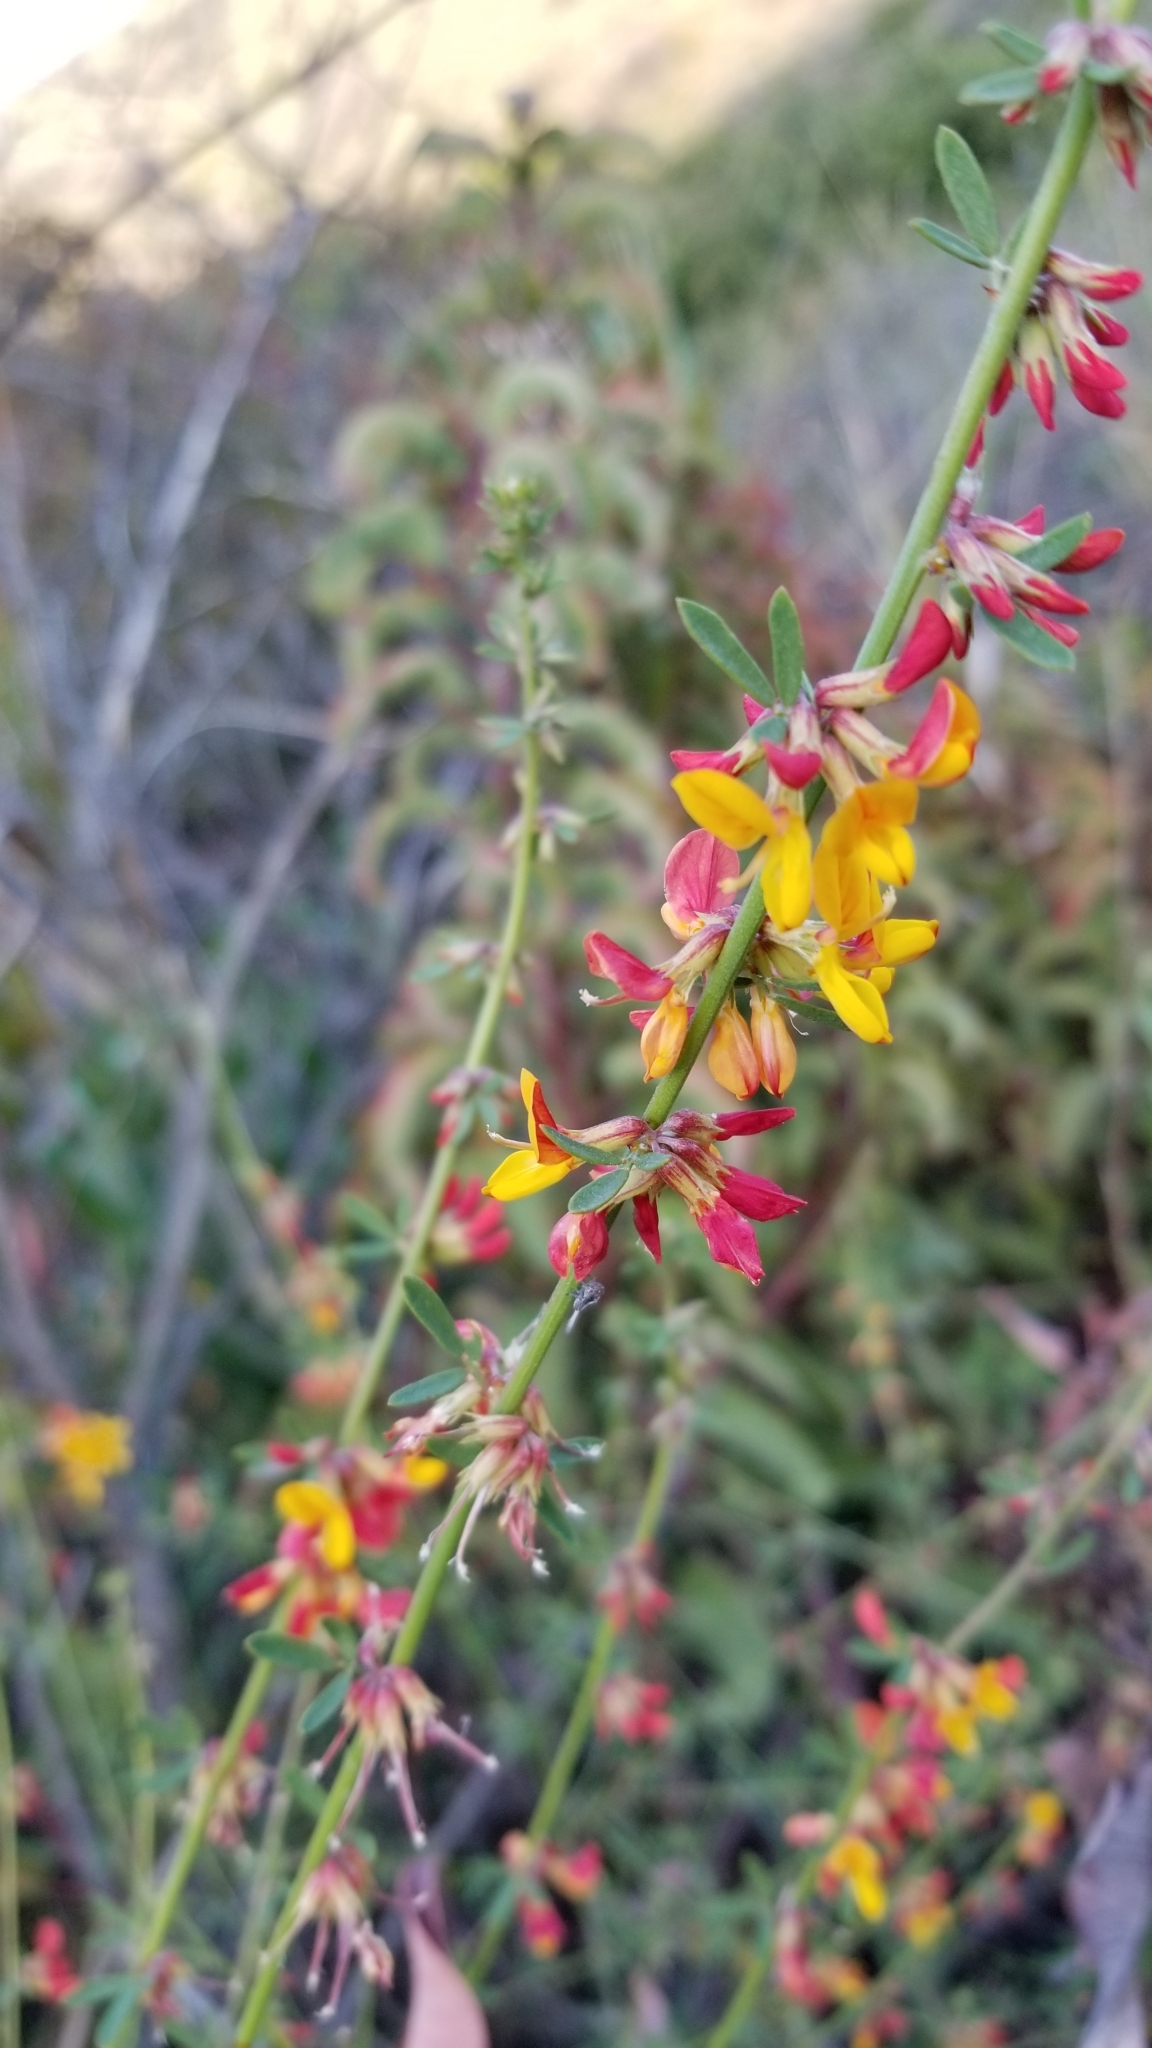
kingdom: Plantae
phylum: Tracheophyta
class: Magnoliopsida
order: Fabales
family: Fabaceae
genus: Acmispon
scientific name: Acmispon glaber
